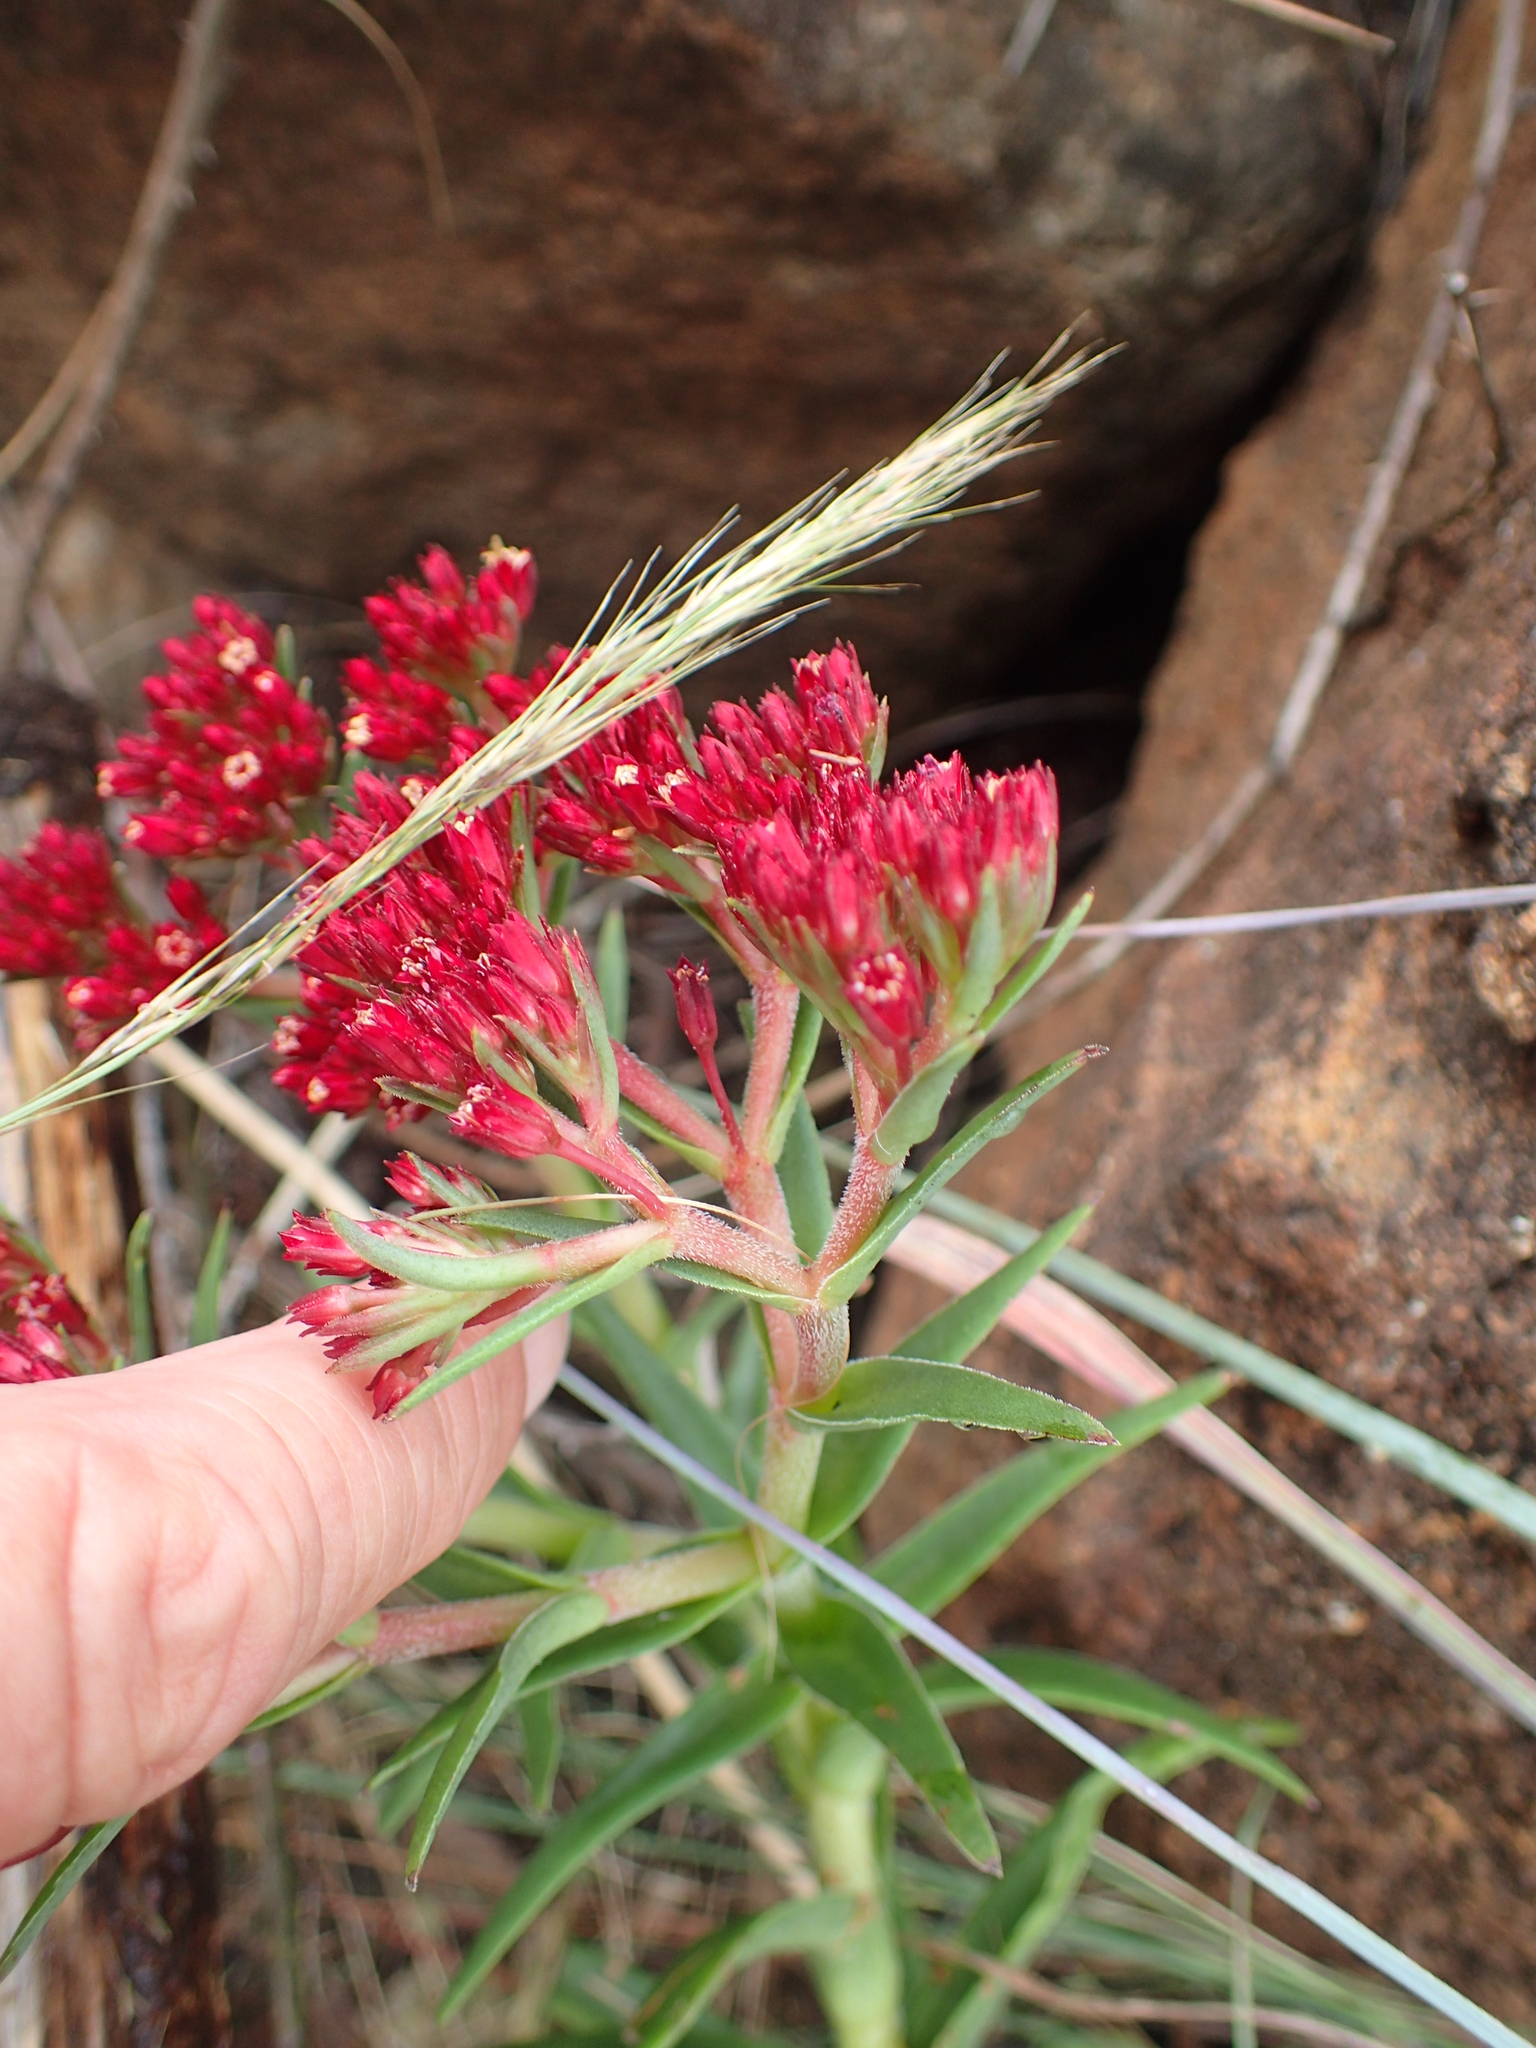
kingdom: Plantae
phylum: Tracheophyta
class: Magnoliopsida
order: Saxifragales
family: Crassulaceae
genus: Crassula
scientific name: Crassula alba
